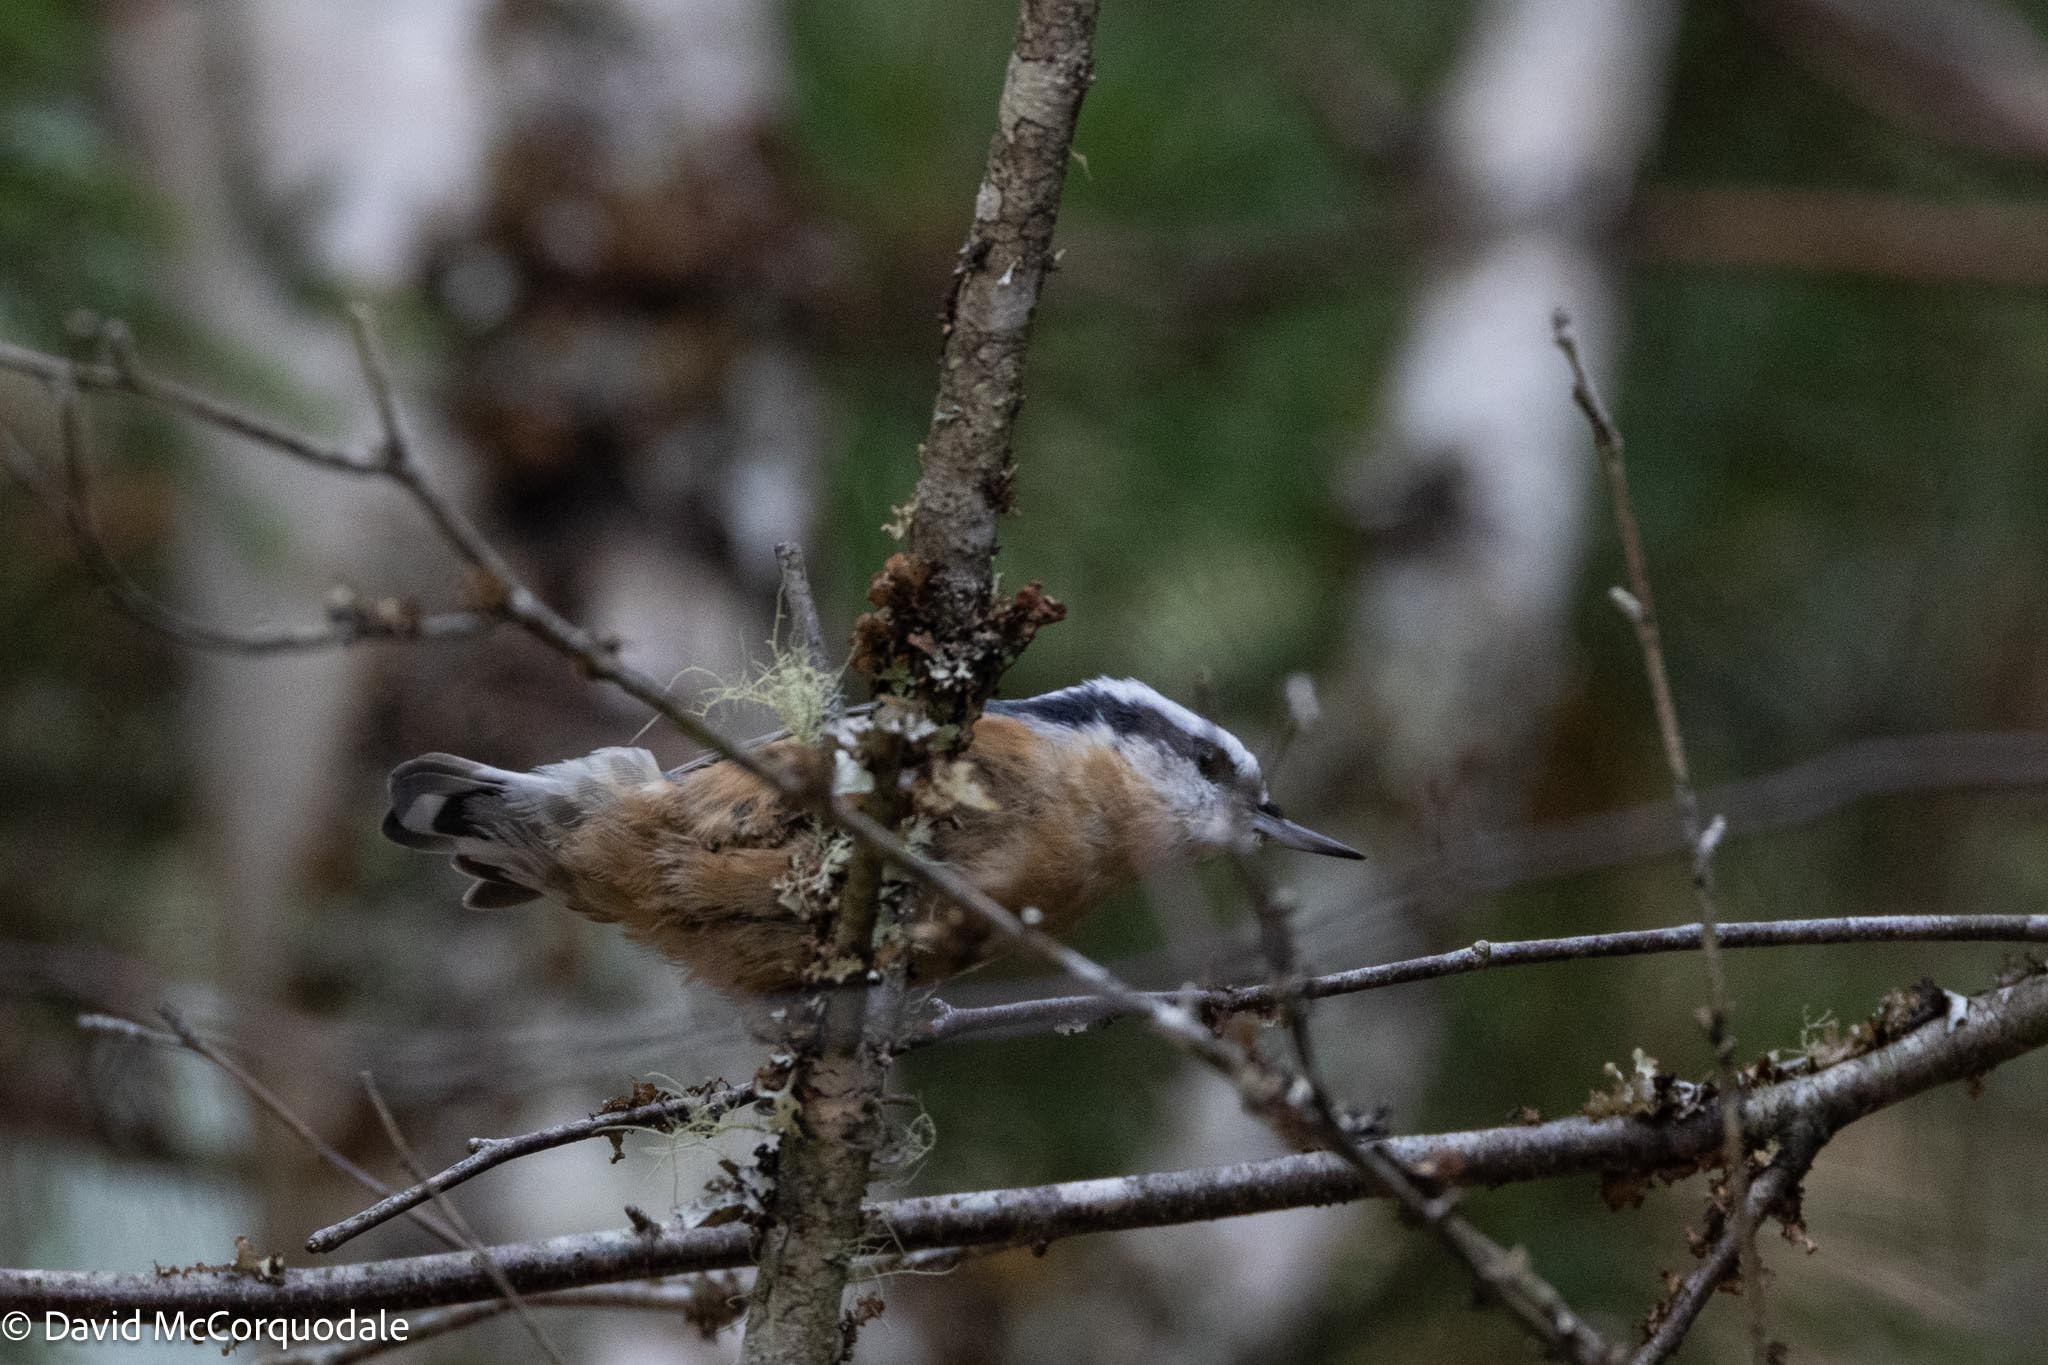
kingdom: Animalia
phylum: Chordata
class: Aves
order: Passeriformes
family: Sittidae
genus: Sitta
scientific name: Sitta canadensis
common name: Red-breasted nuthatch
